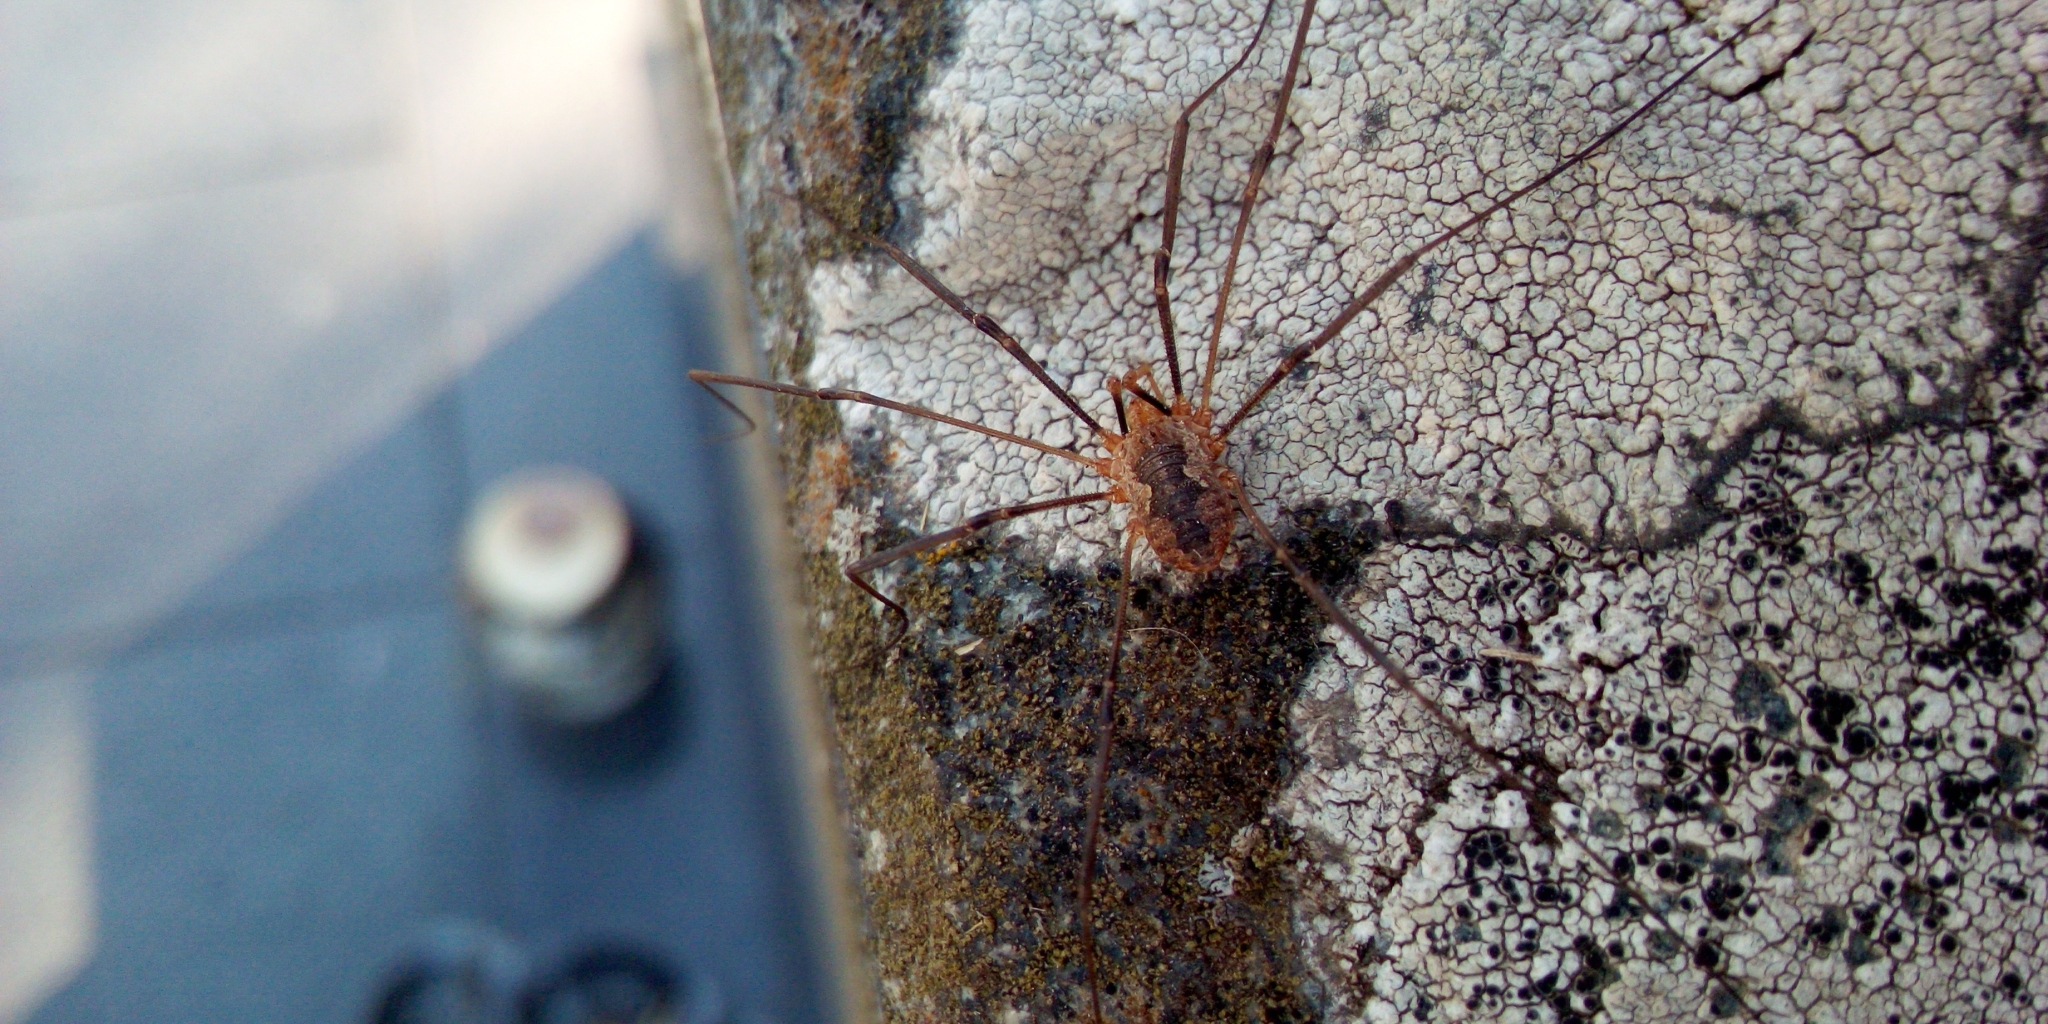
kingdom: Animalia
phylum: Arthropoda
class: Arachnida
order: Opiliones
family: Phalangiidae
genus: Phalangium
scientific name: Phalangium opilio
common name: Daddy longleg
